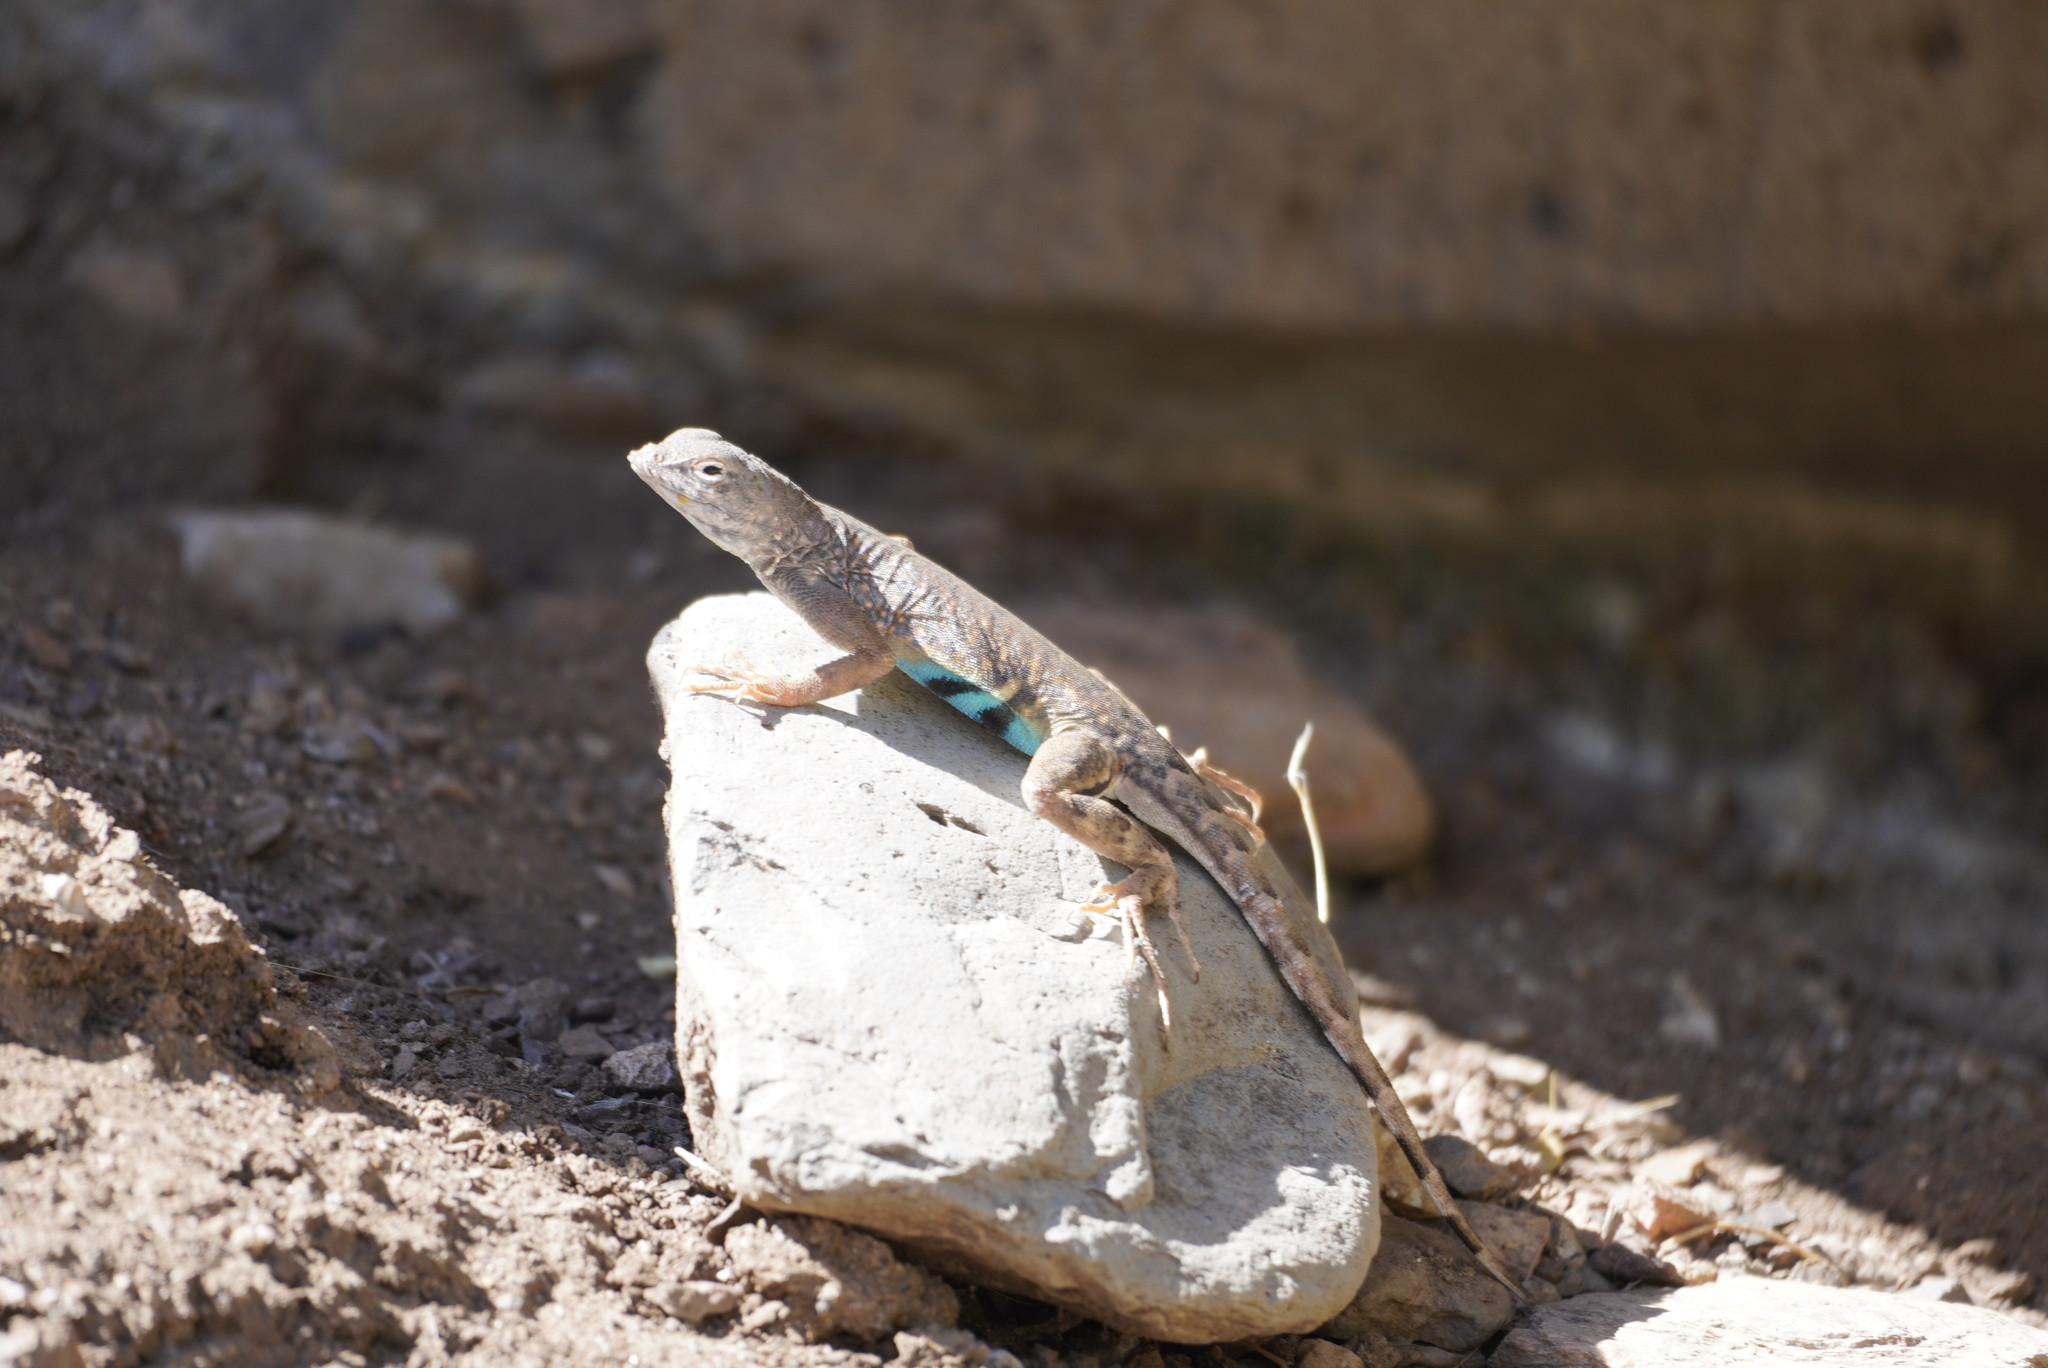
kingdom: Animalia
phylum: Chordata
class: Squamata
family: Phrynosomatidae
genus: Cophosaurus
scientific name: Cophosaurus texanus
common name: Greater earless lizard
